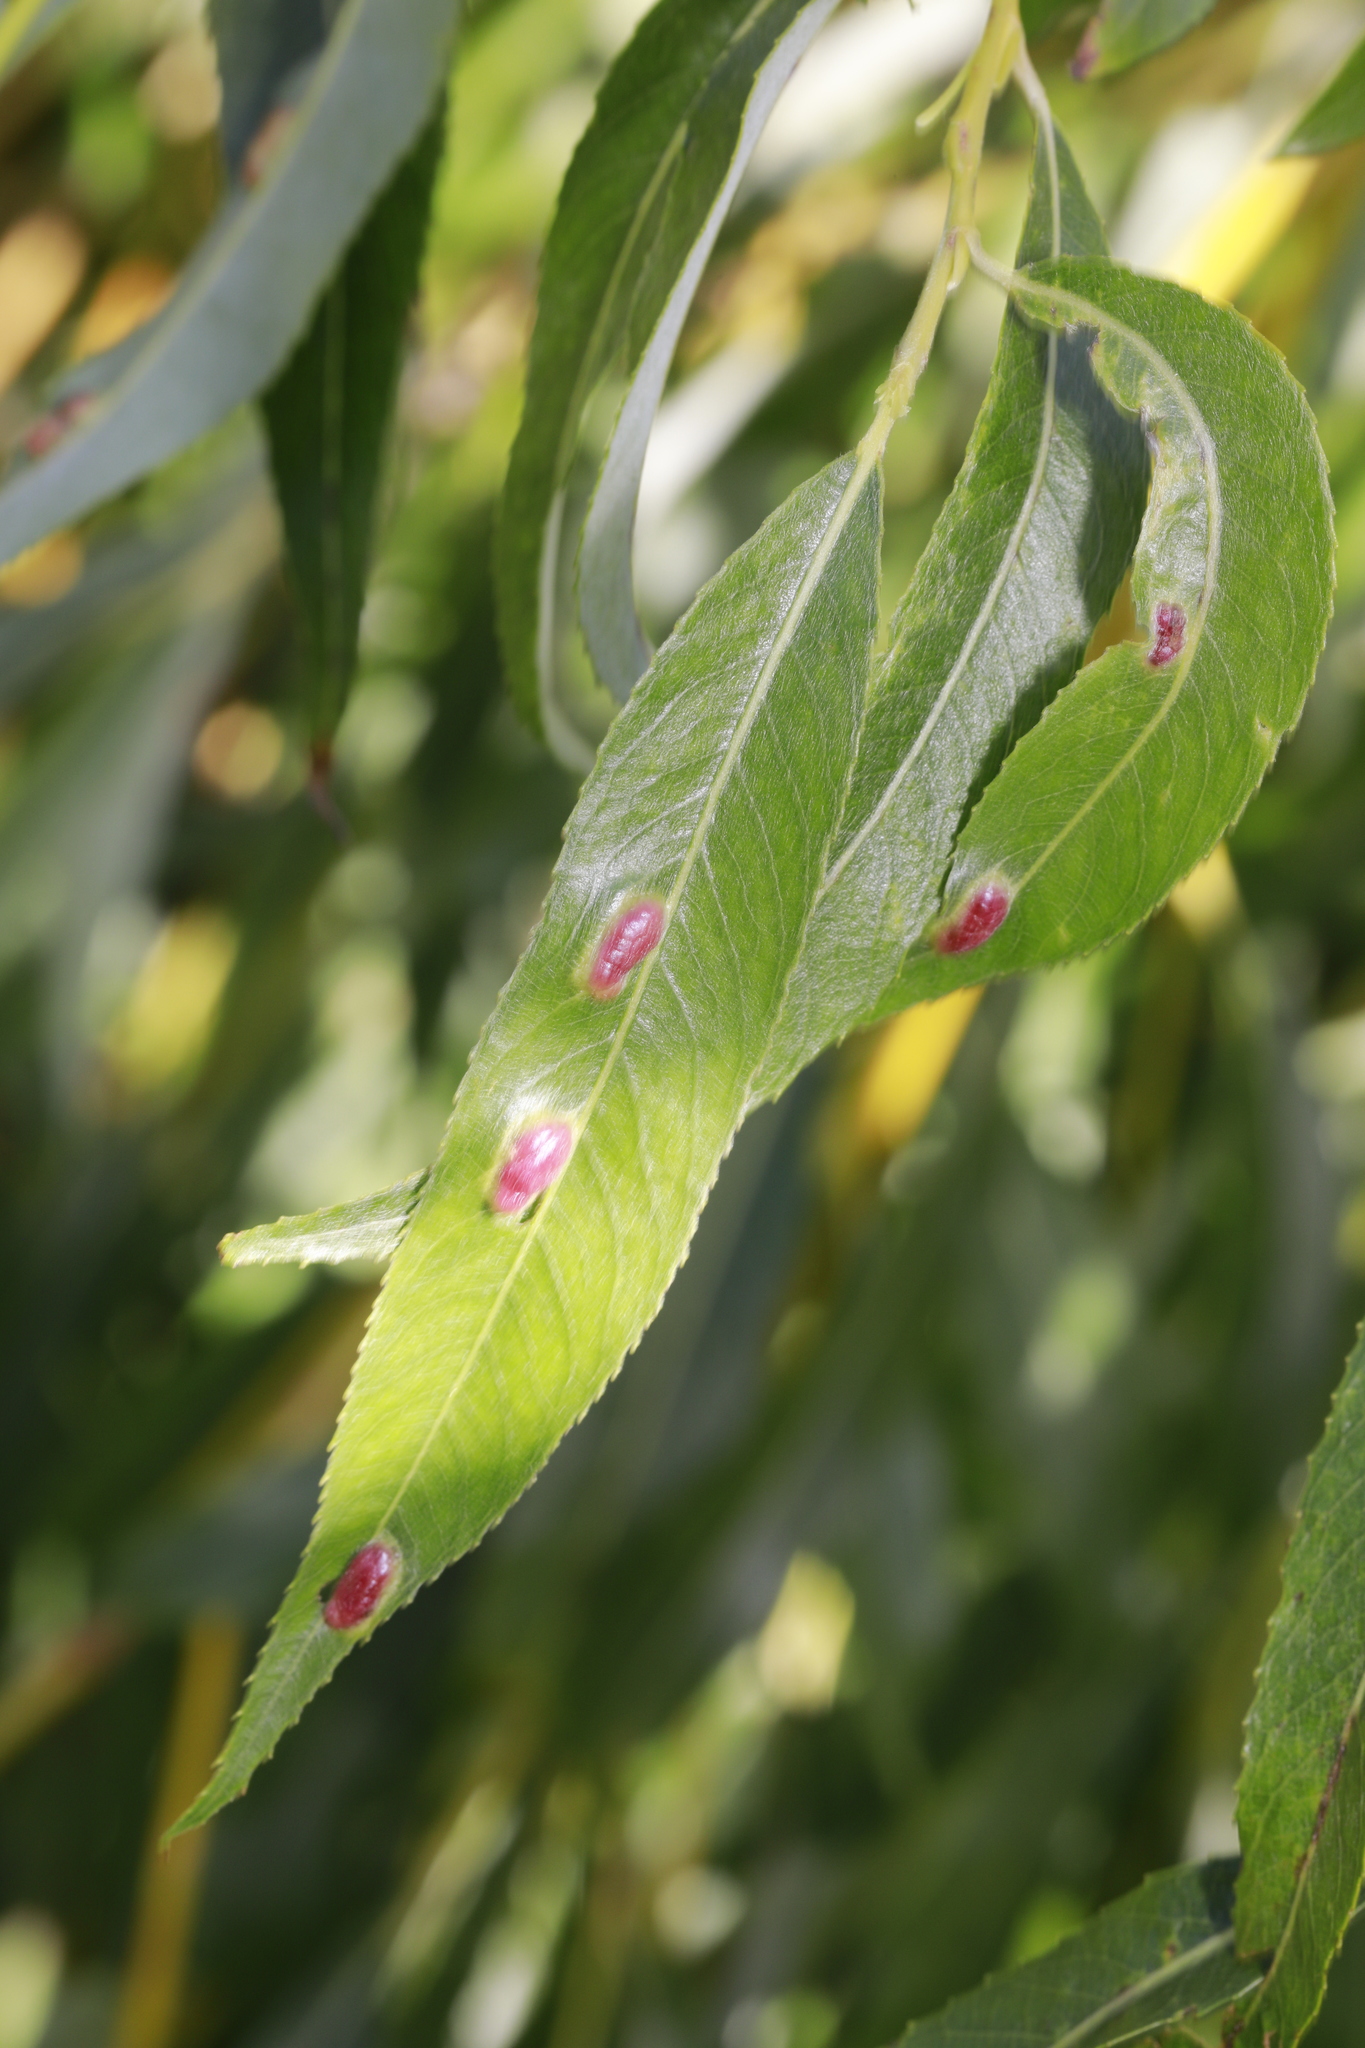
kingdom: Animalia
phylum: Arthropoda
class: Insecta
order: Hymenoptera
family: Tenthredinidae
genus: Pontania
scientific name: Pontania proxima
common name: Common sawfly
